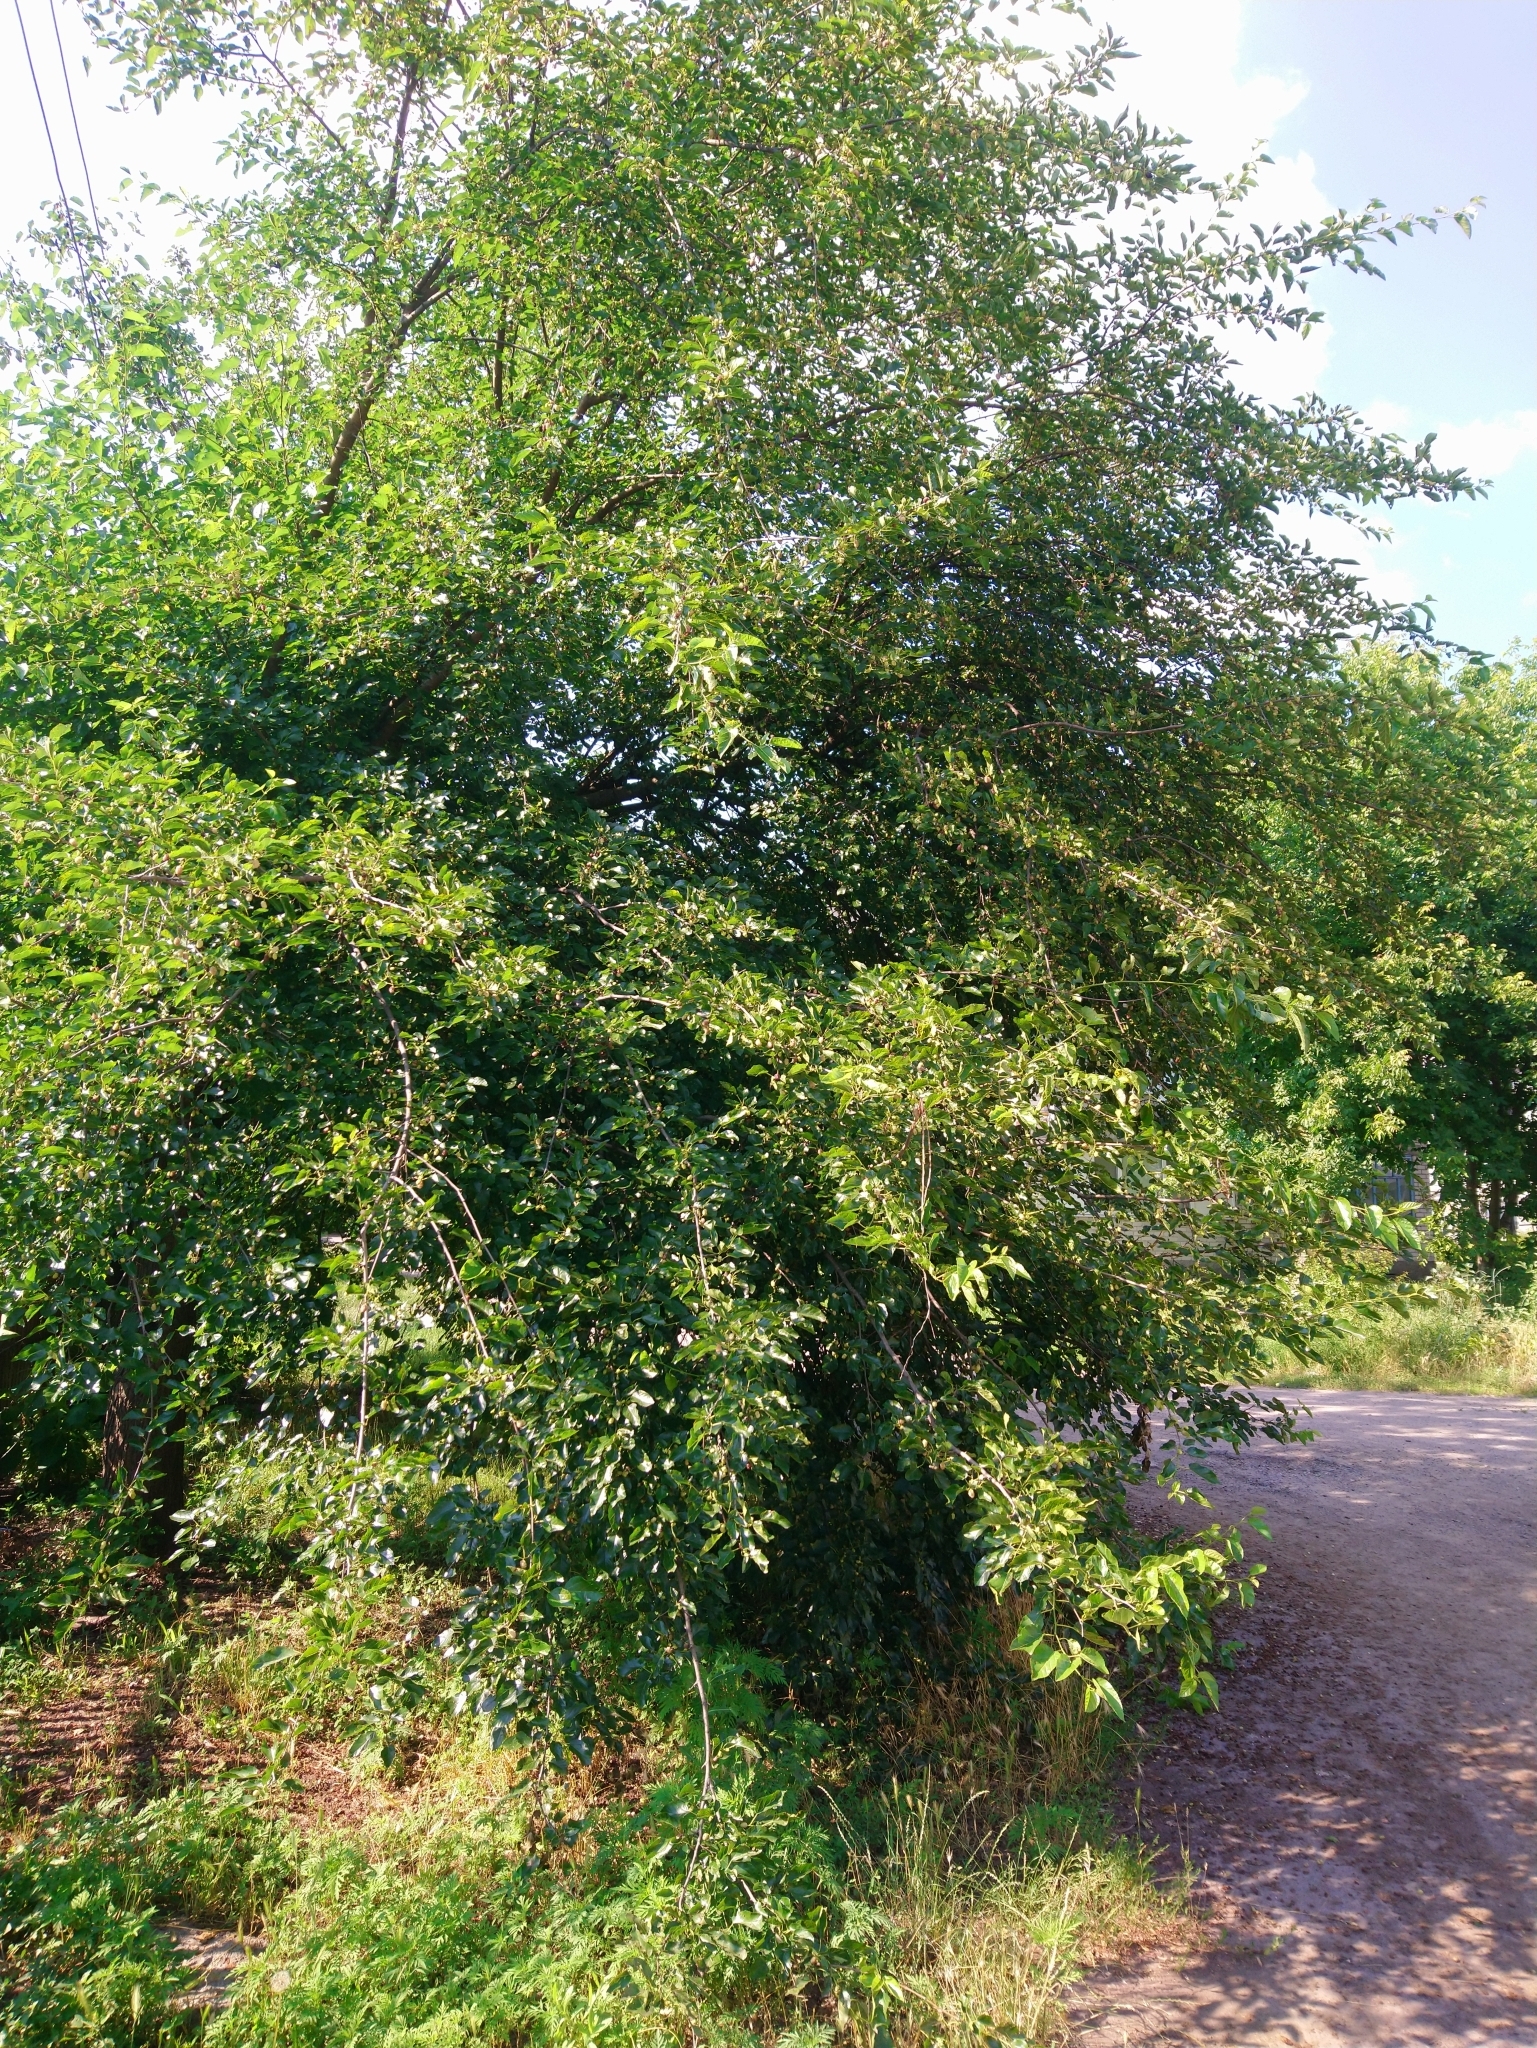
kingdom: Plantae
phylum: Tracheophyta
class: Magnoliopsida
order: Rosales
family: Moraceae
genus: Morus
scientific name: Morus alba
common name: White mulberry
